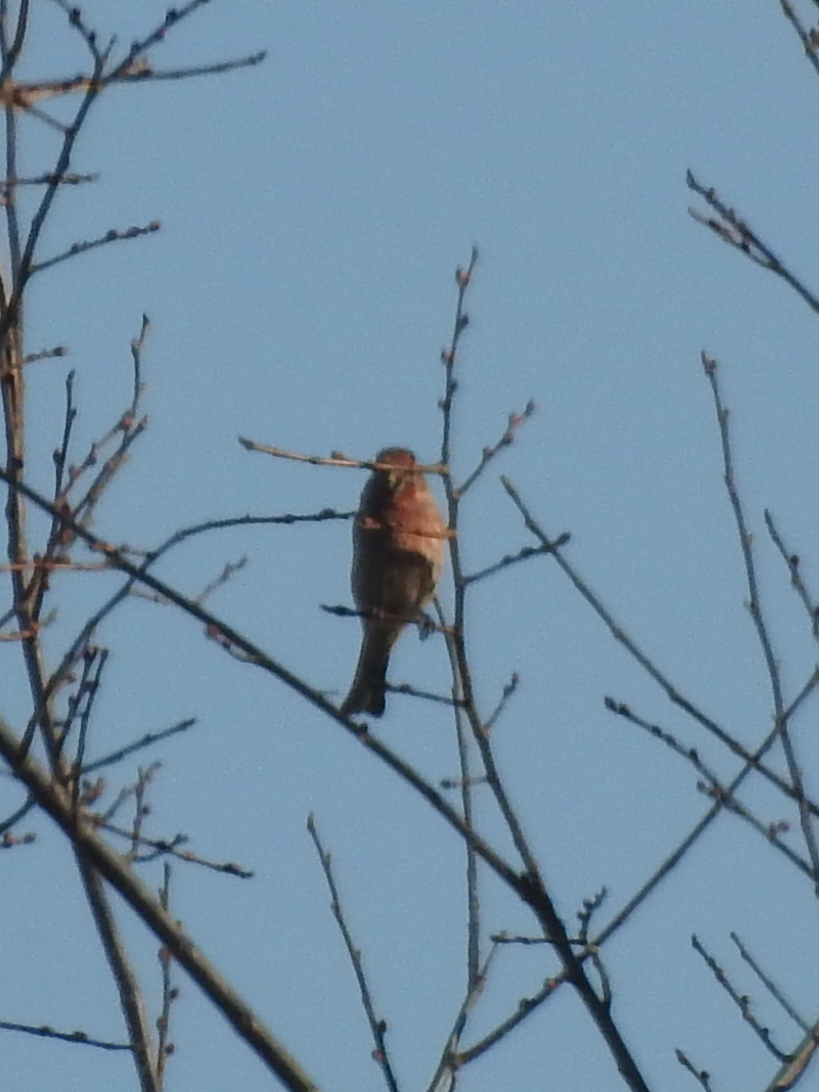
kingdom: Animalia
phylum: Chordata
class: Aves
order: Passeriformes
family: Fringillidae
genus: Haemorhous
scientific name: Haemorhous mexicanus
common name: House finch
